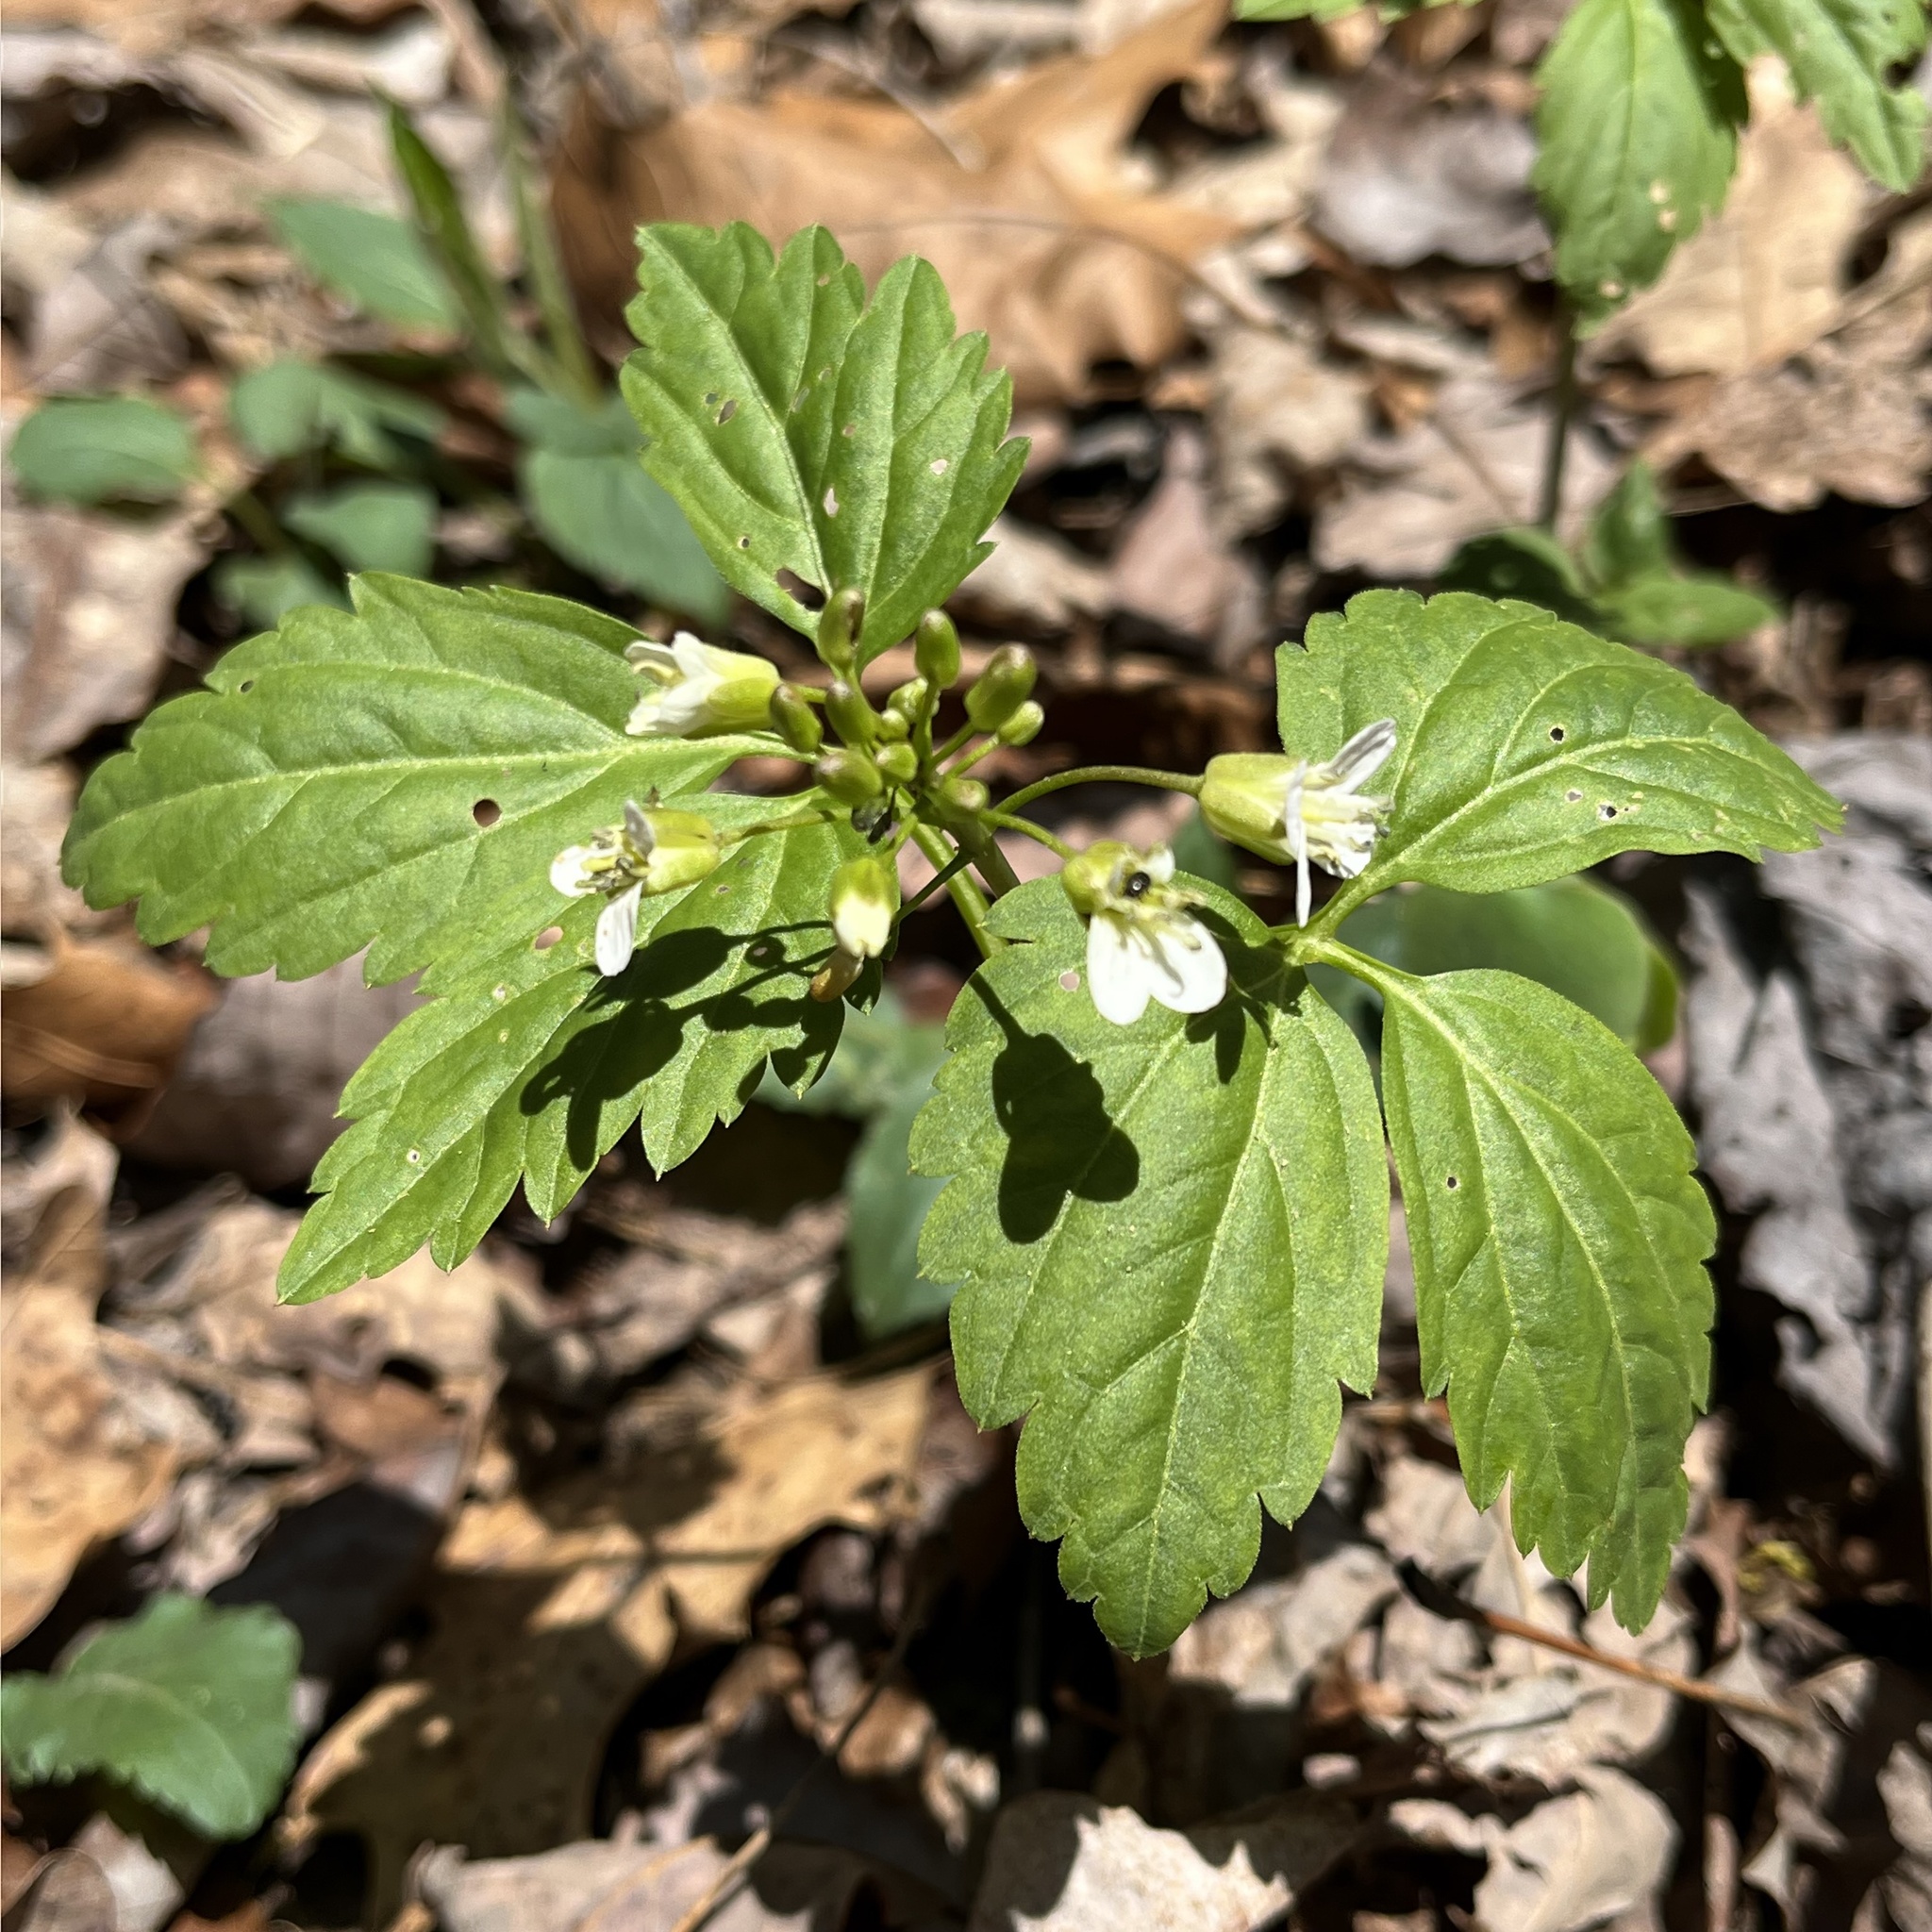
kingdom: Plantae
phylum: Tracheophyta
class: Magnoliopsida
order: Brassicales
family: Brassicaceae
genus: Cardamine
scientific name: Cardamine diphylla
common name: Broad-leaved toothwort
